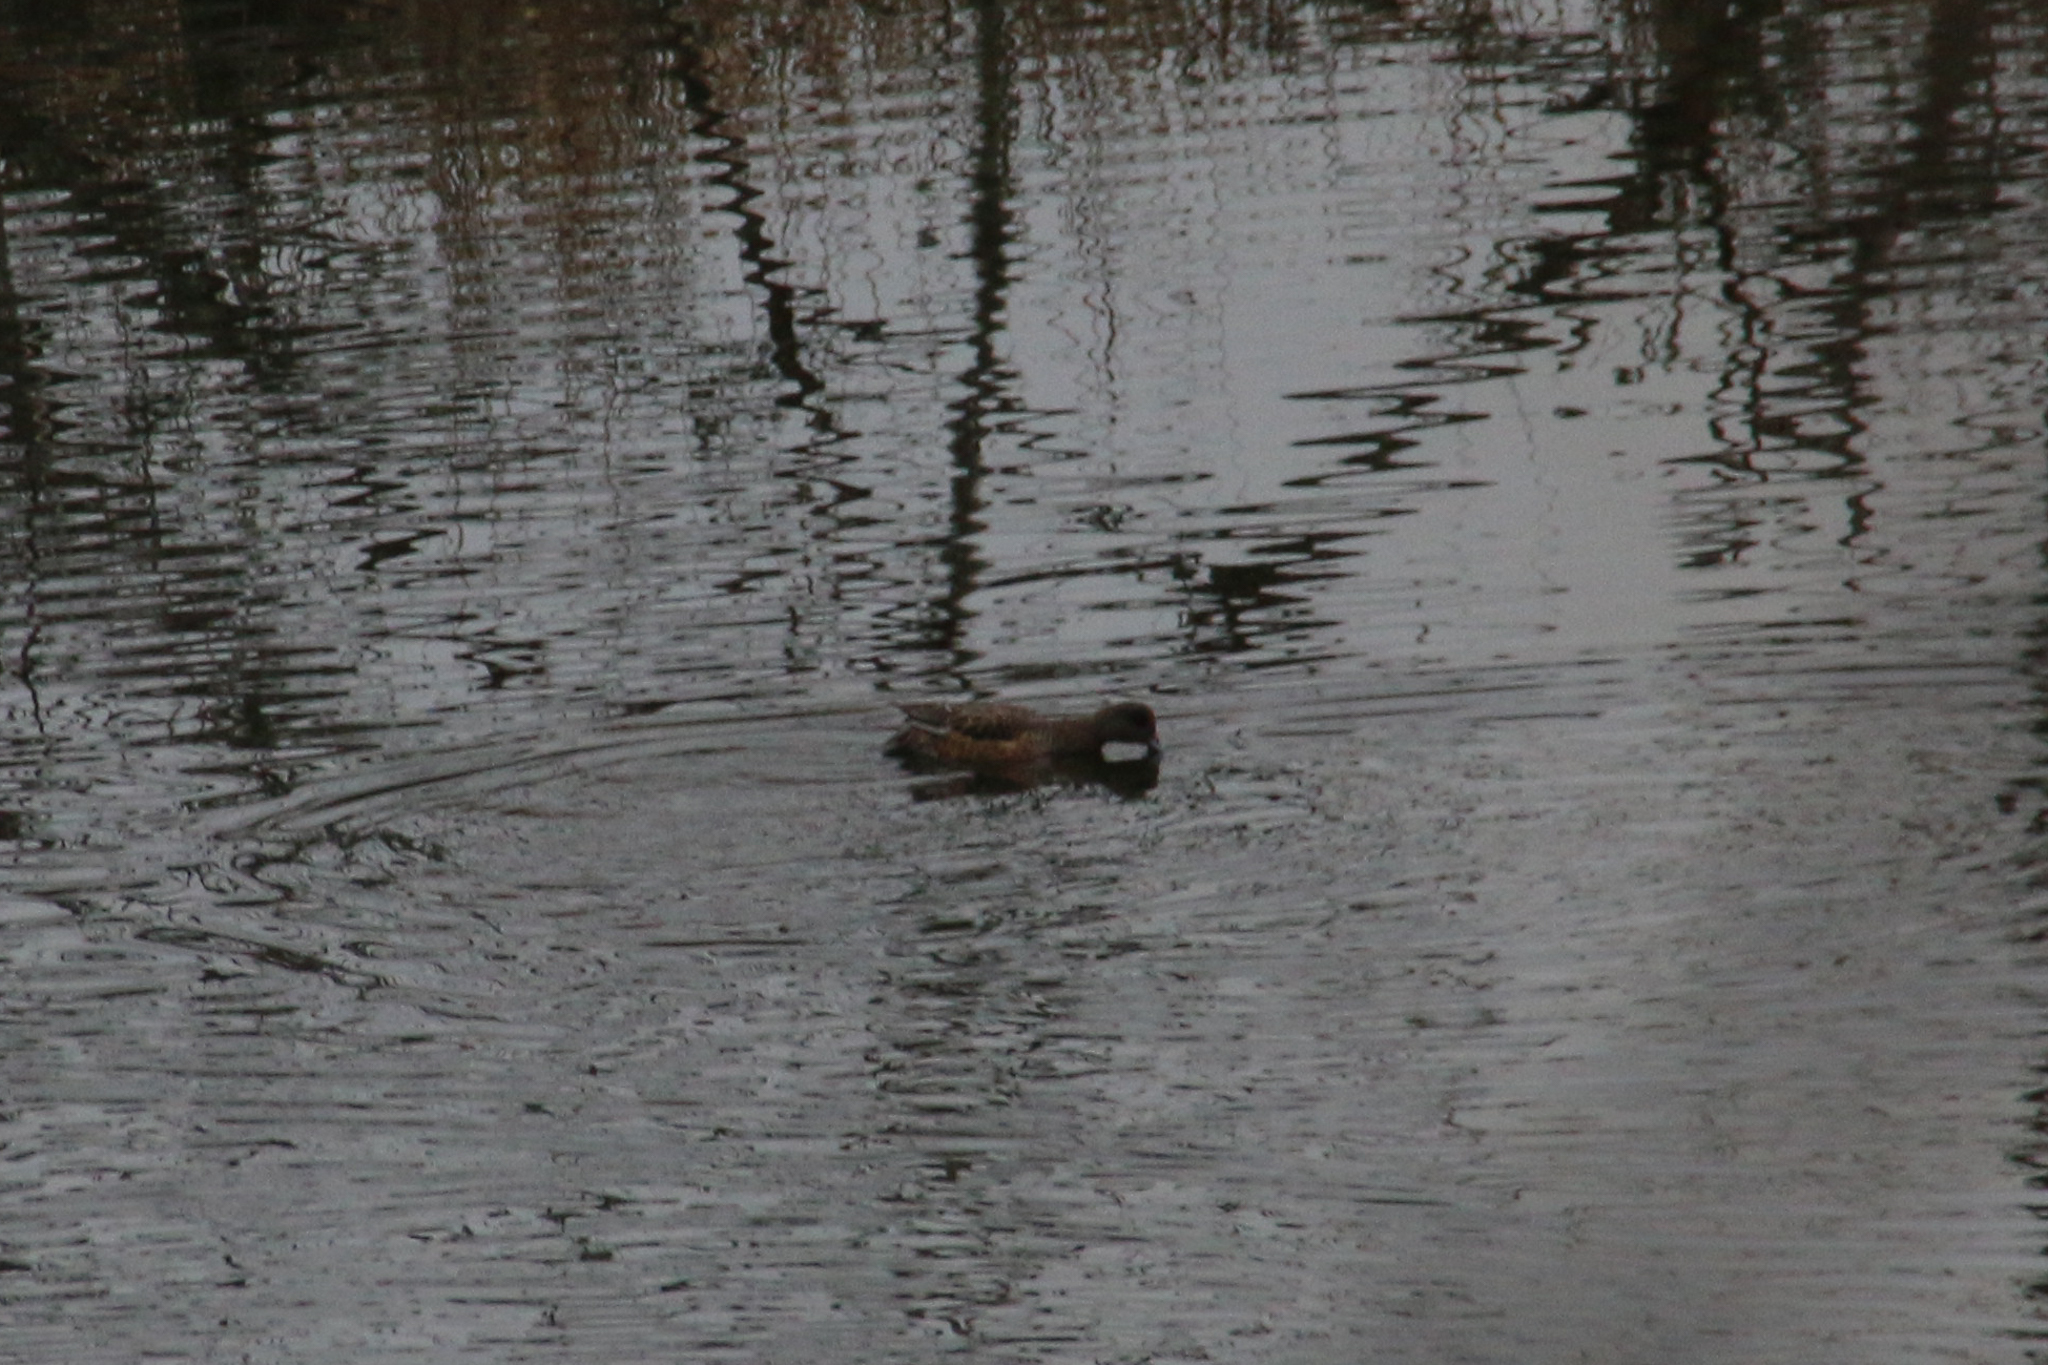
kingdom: Animalia
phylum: Chordata
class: Aves
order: Anseriformes
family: Anatidae
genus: Mareca
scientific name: Mareca americana
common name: American wigeon
